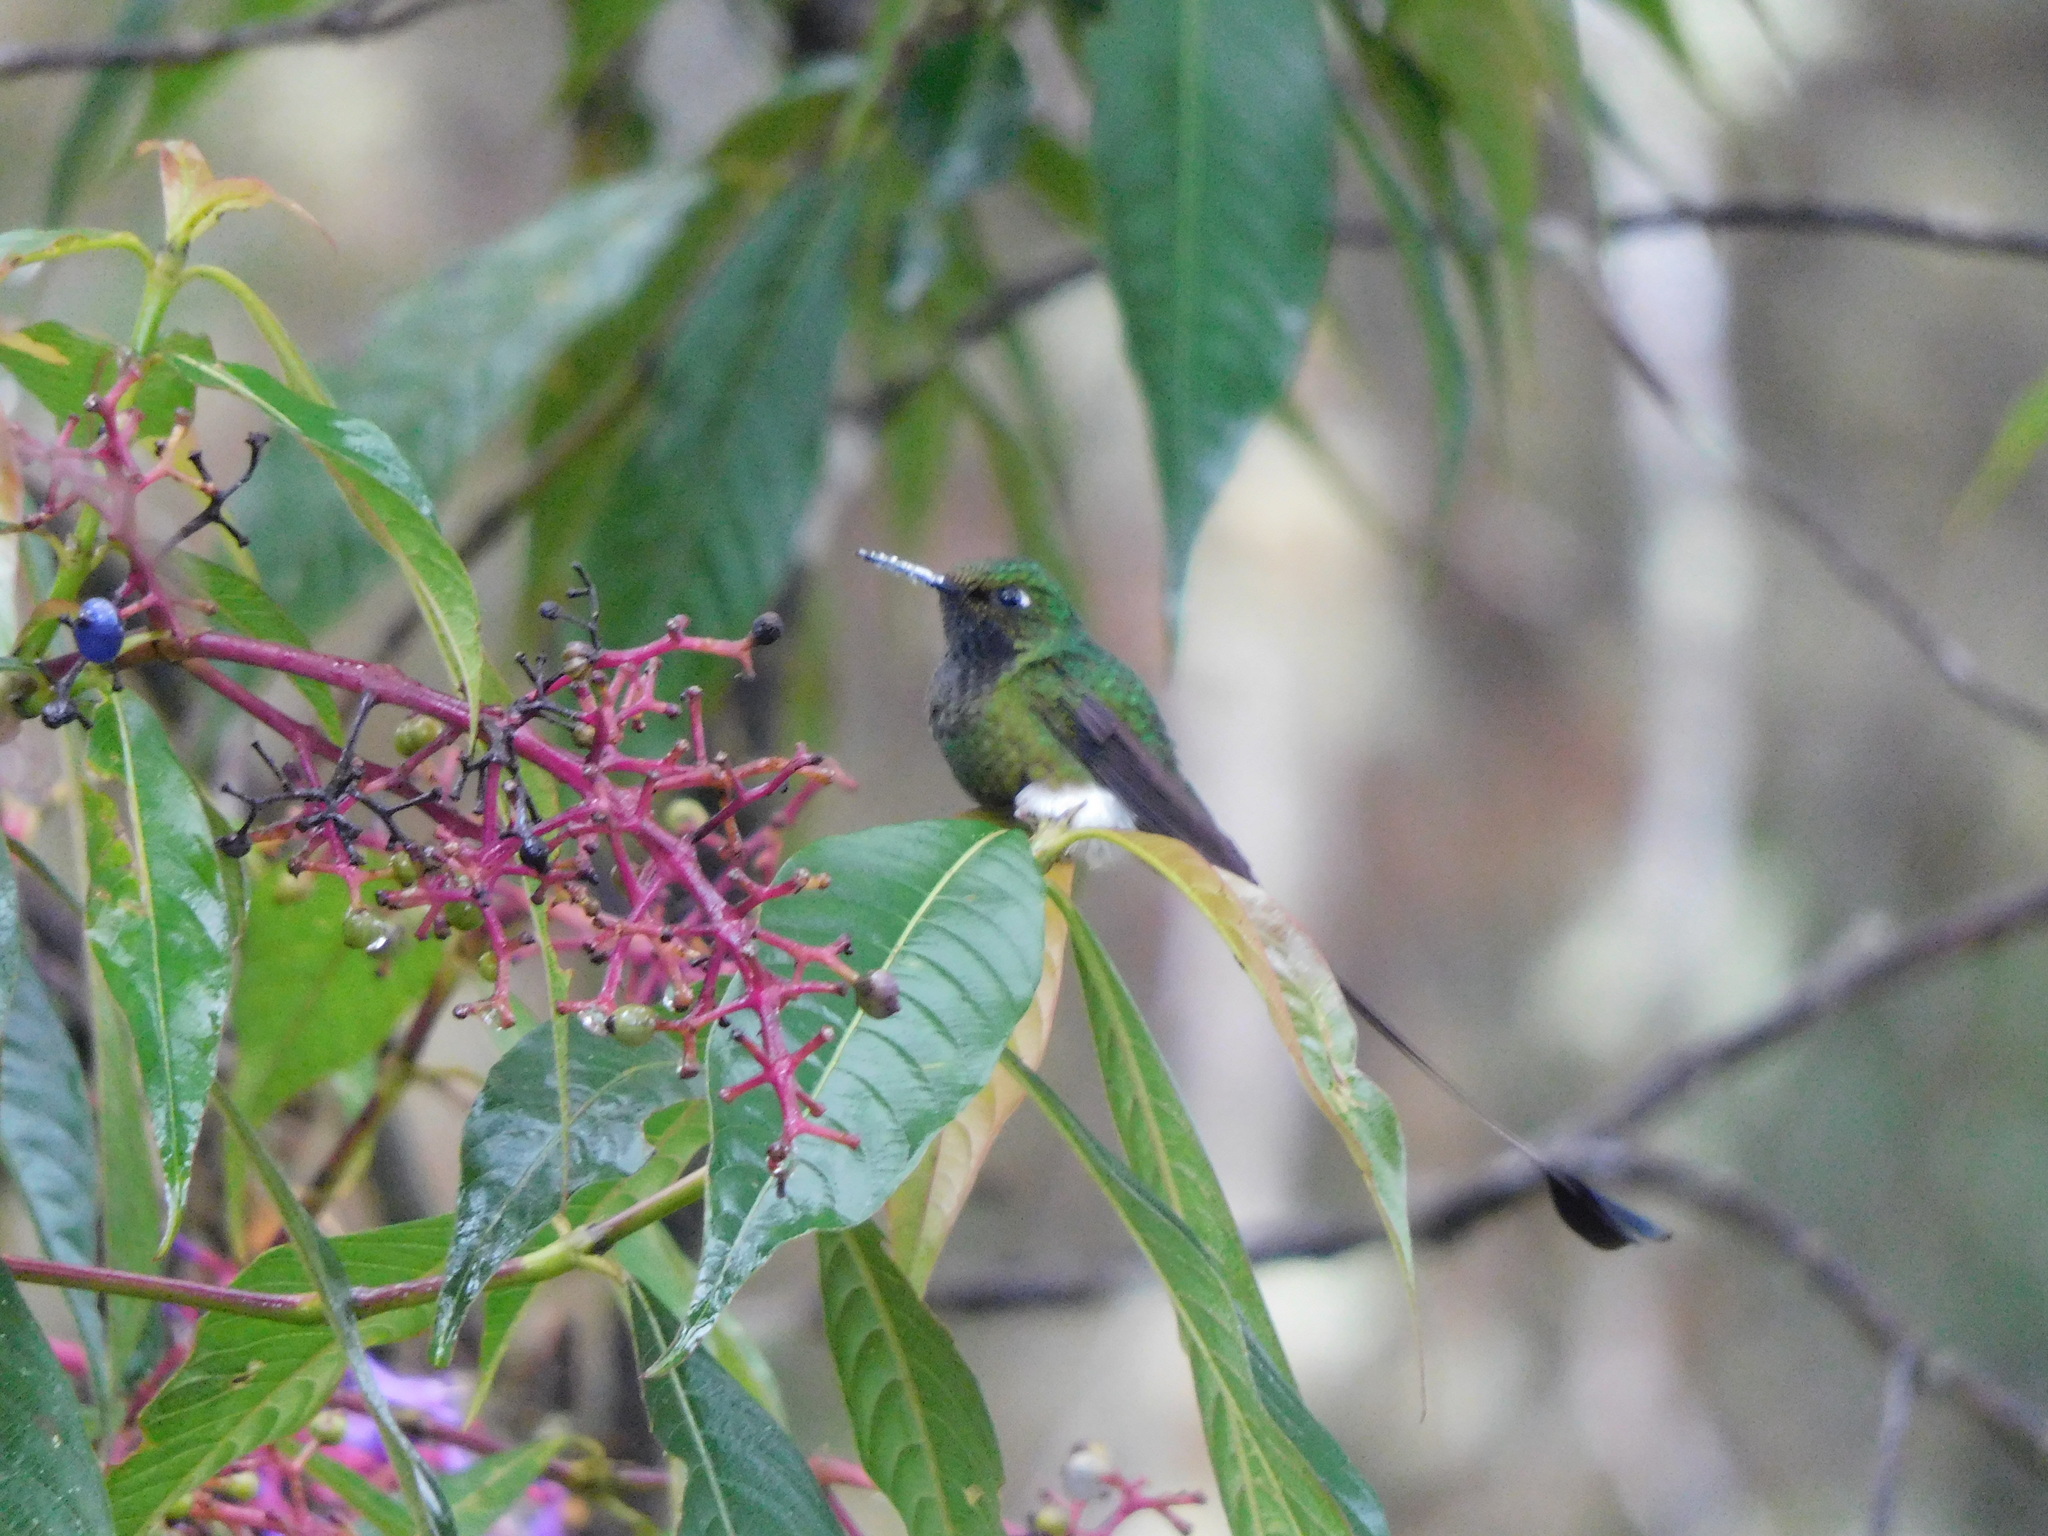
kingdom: Animalia
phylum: Chordata
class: Aves
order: Apodiformes
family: Trochilidae
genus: Ocreatus
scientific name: Ocreatus underwoodii
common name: Booted racket-tail
